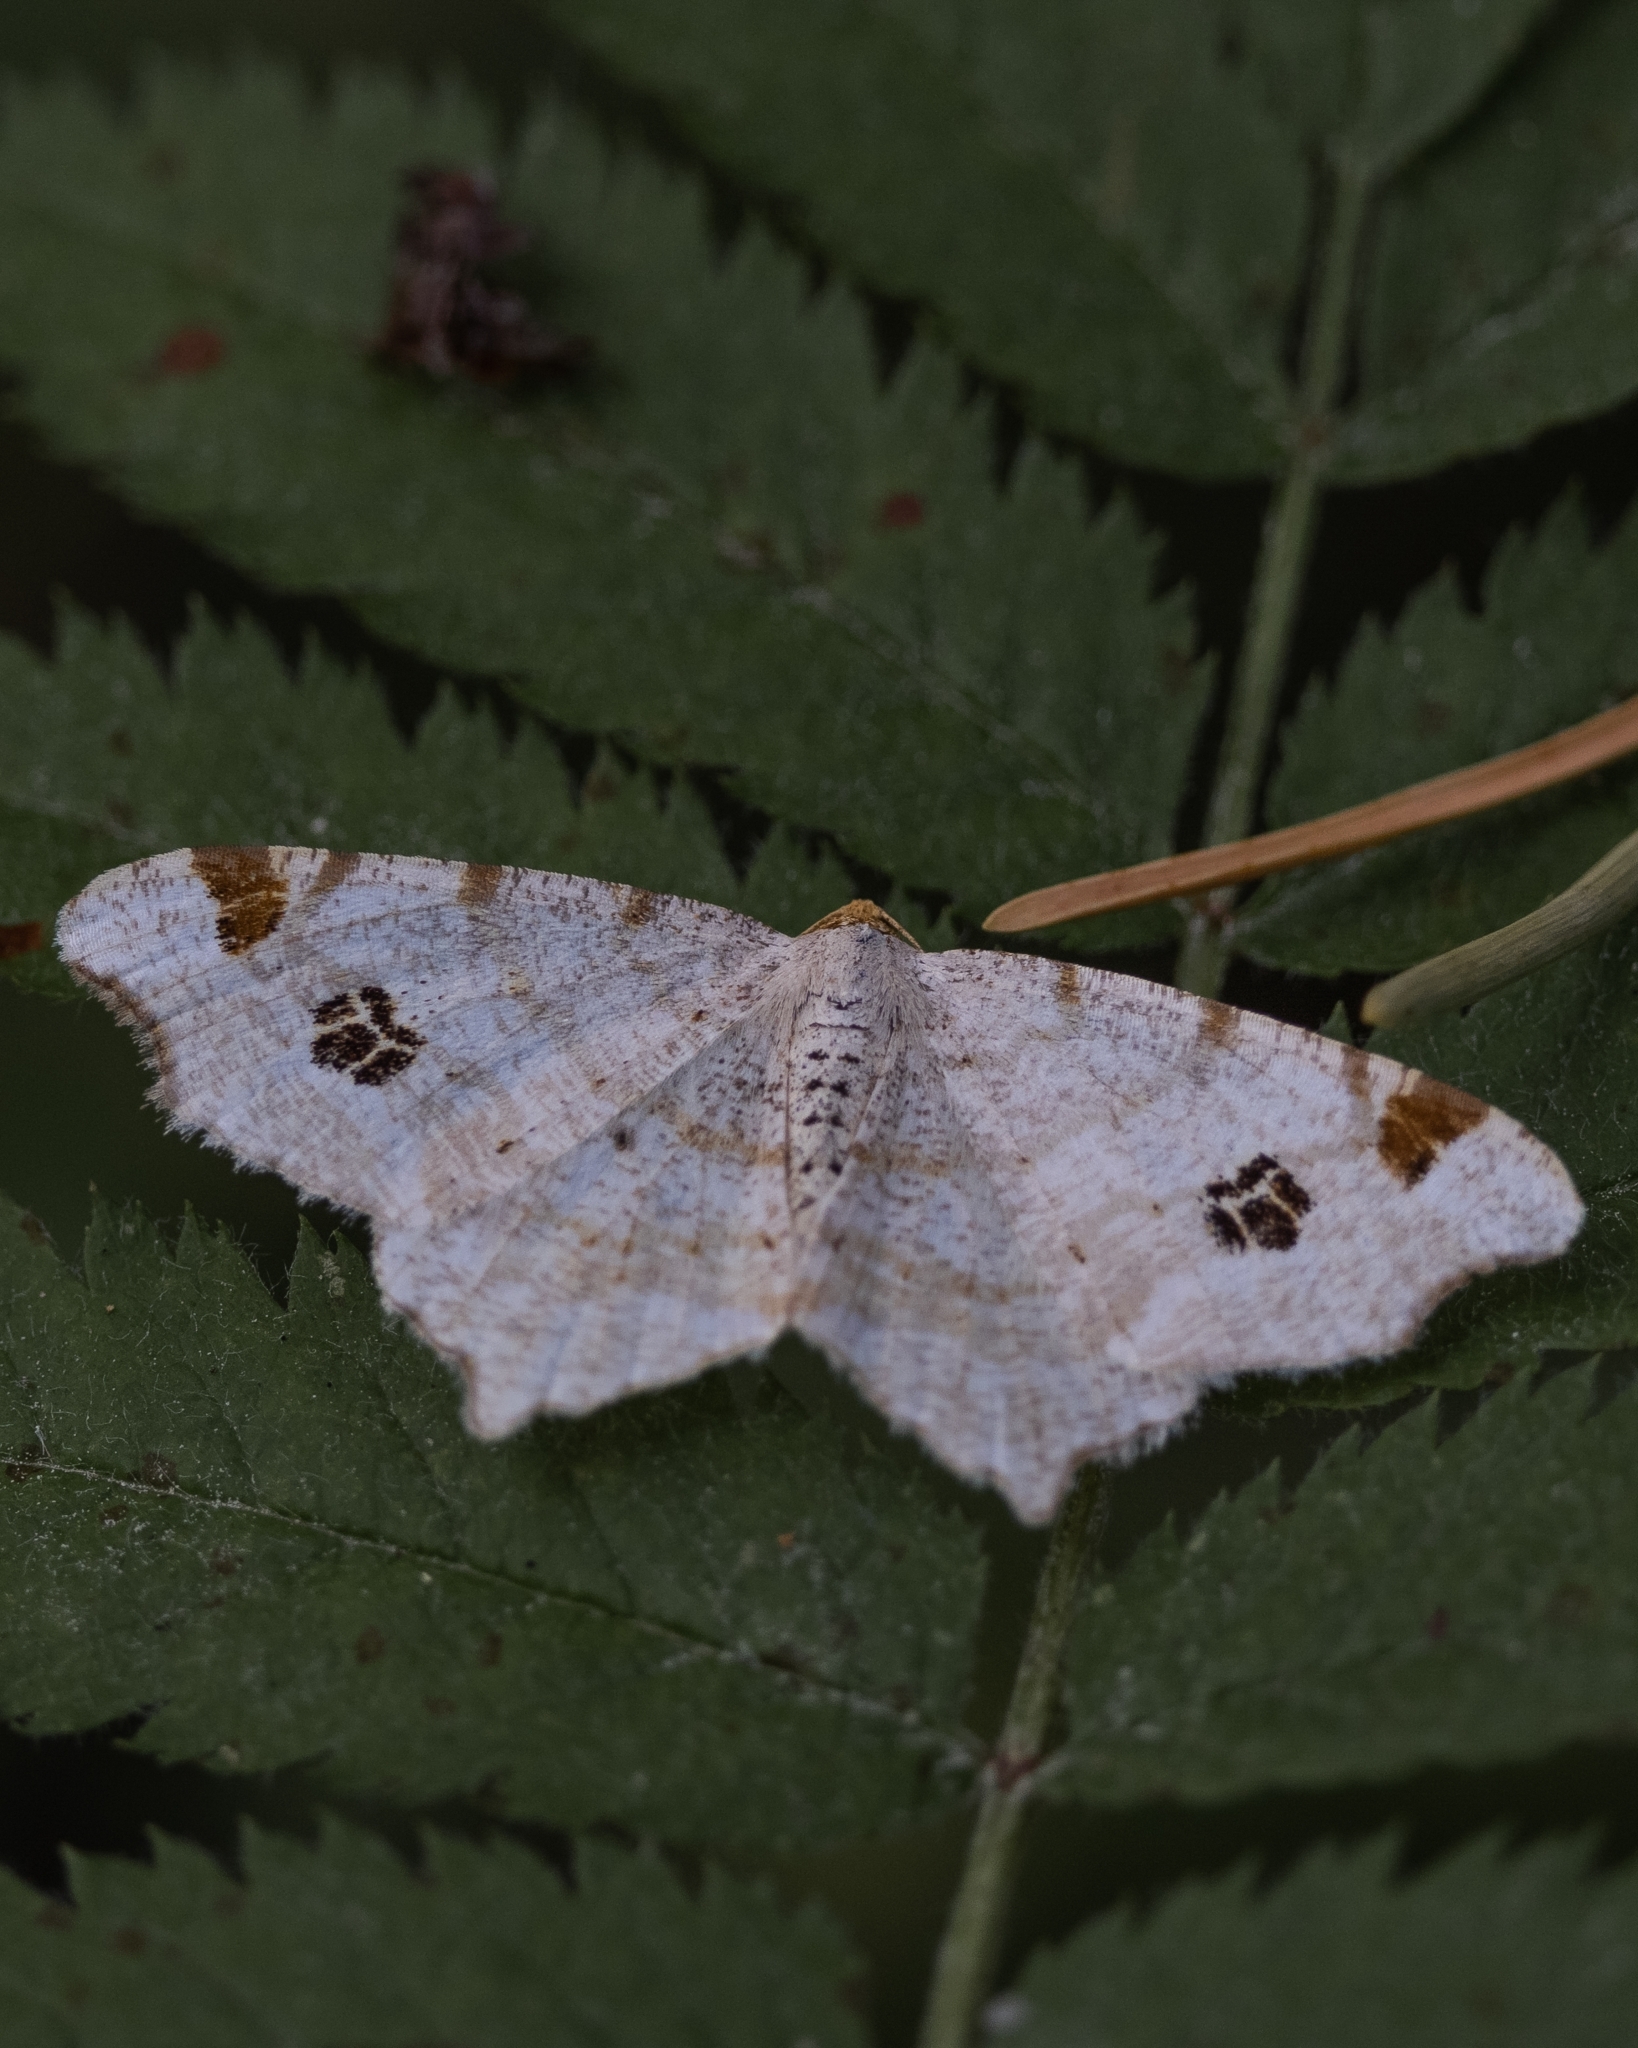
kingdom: Animalia
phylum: Arthropoda
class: Insecta
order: Lepidoptera
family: Geometridae
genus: Macaria
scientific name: Macaria notata
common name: Peacock moth
